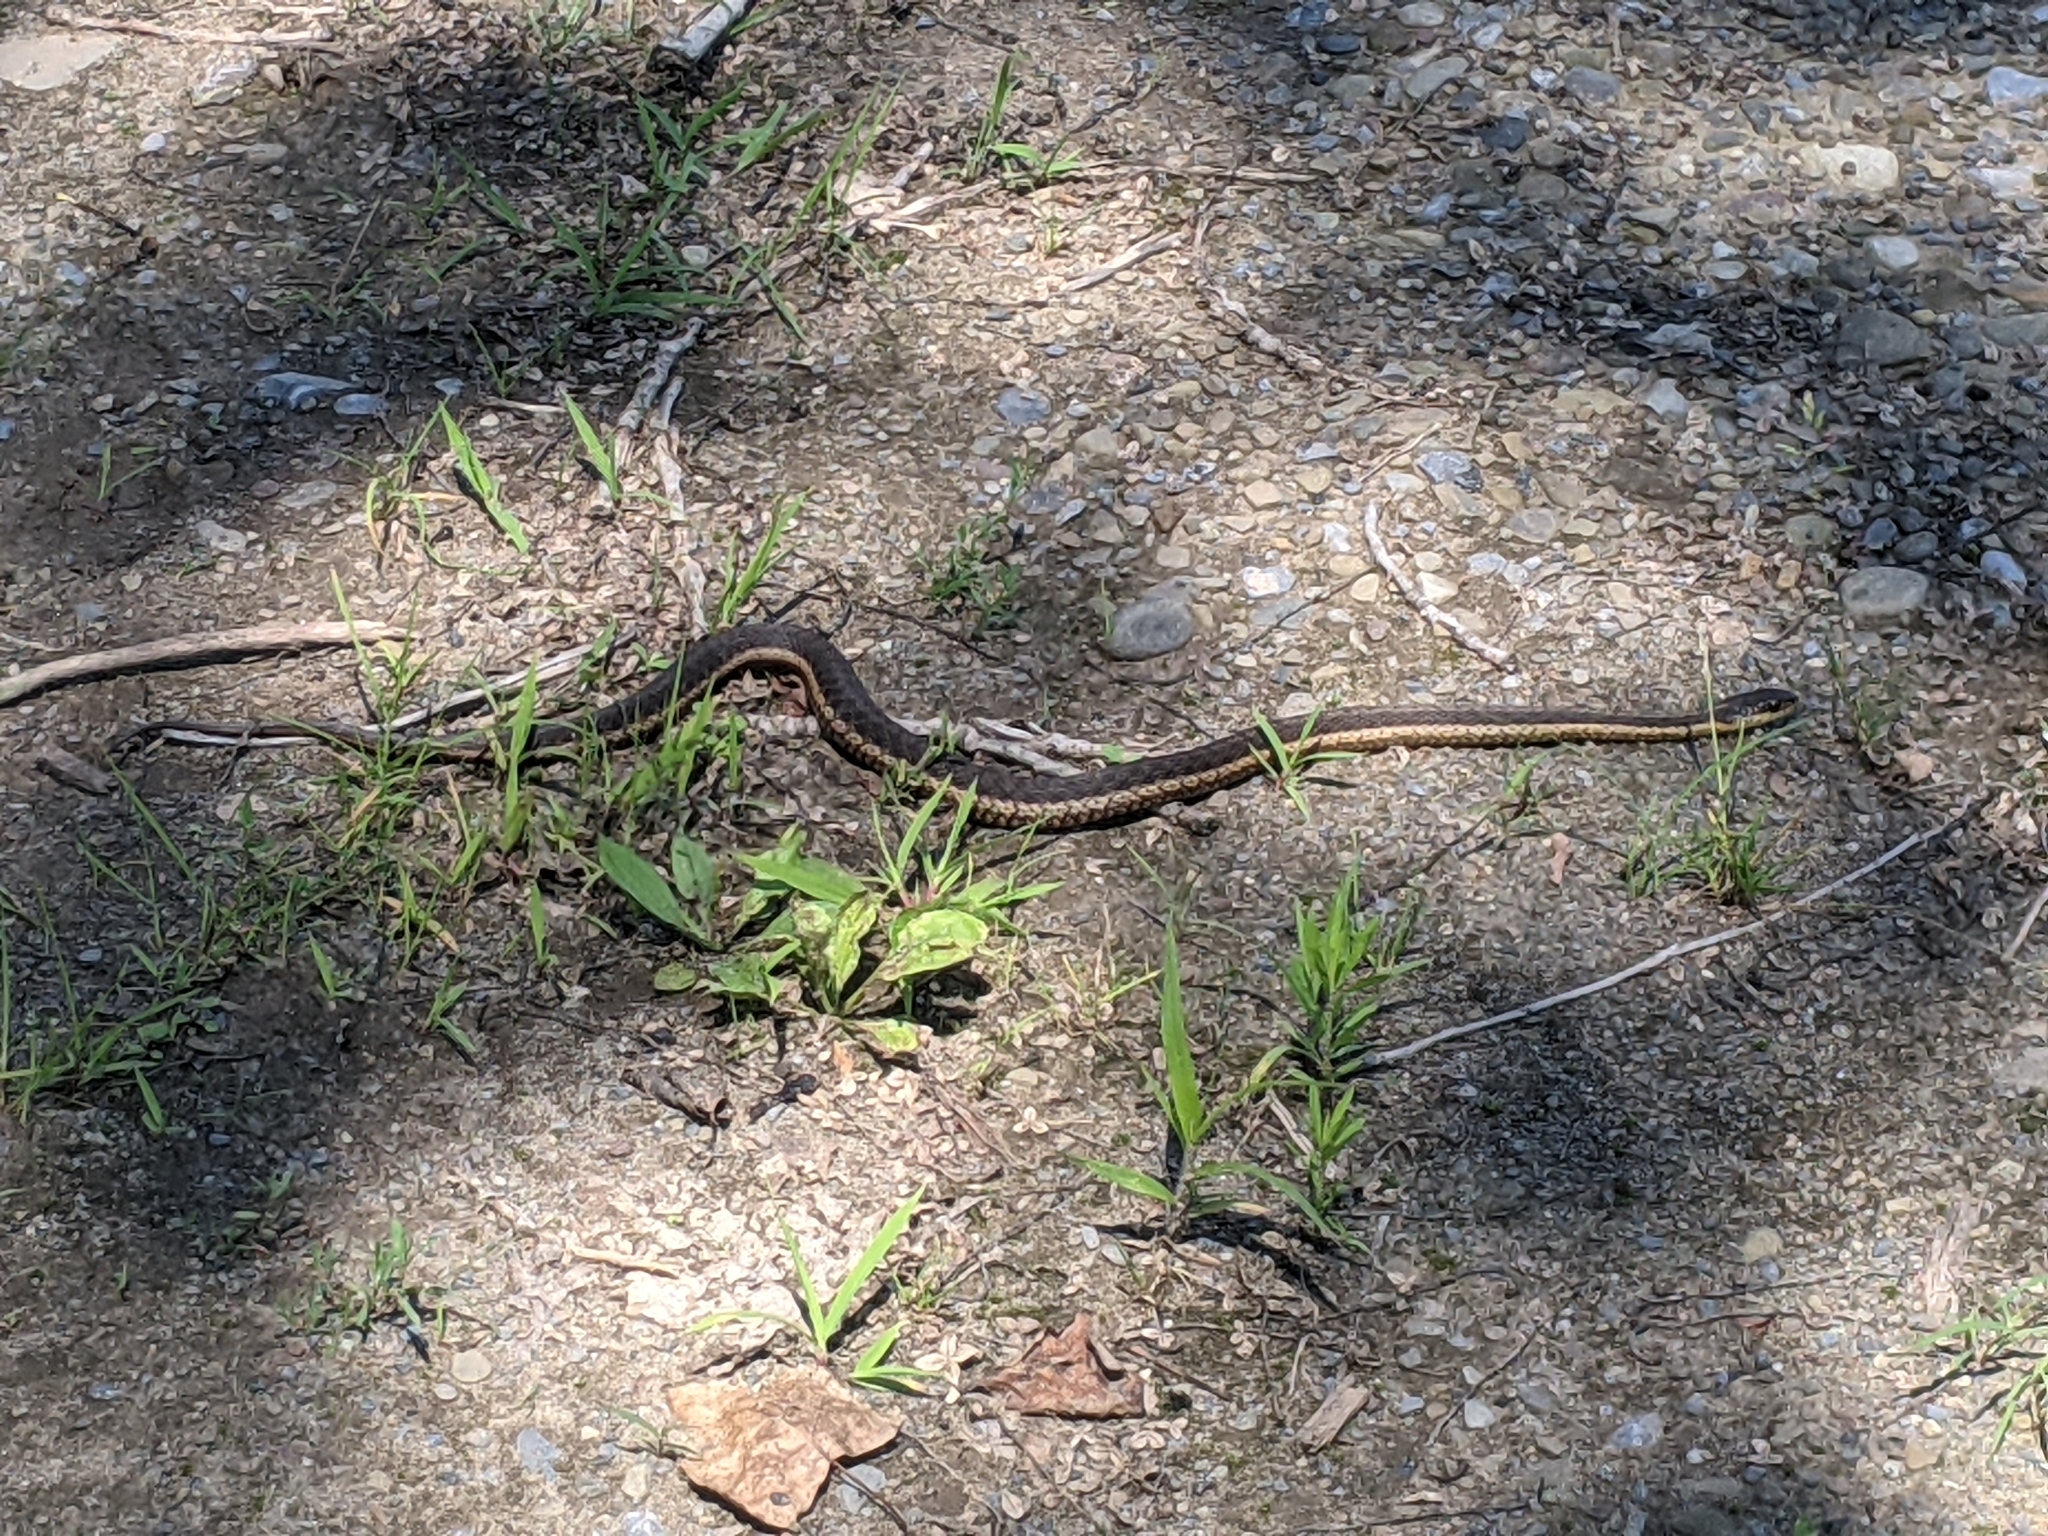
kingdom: Animalia
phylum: Chordata
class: Squamata
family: Colubridae
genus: Thamnophis
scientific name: Thamnophis sirtalis
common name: Common garter snake
